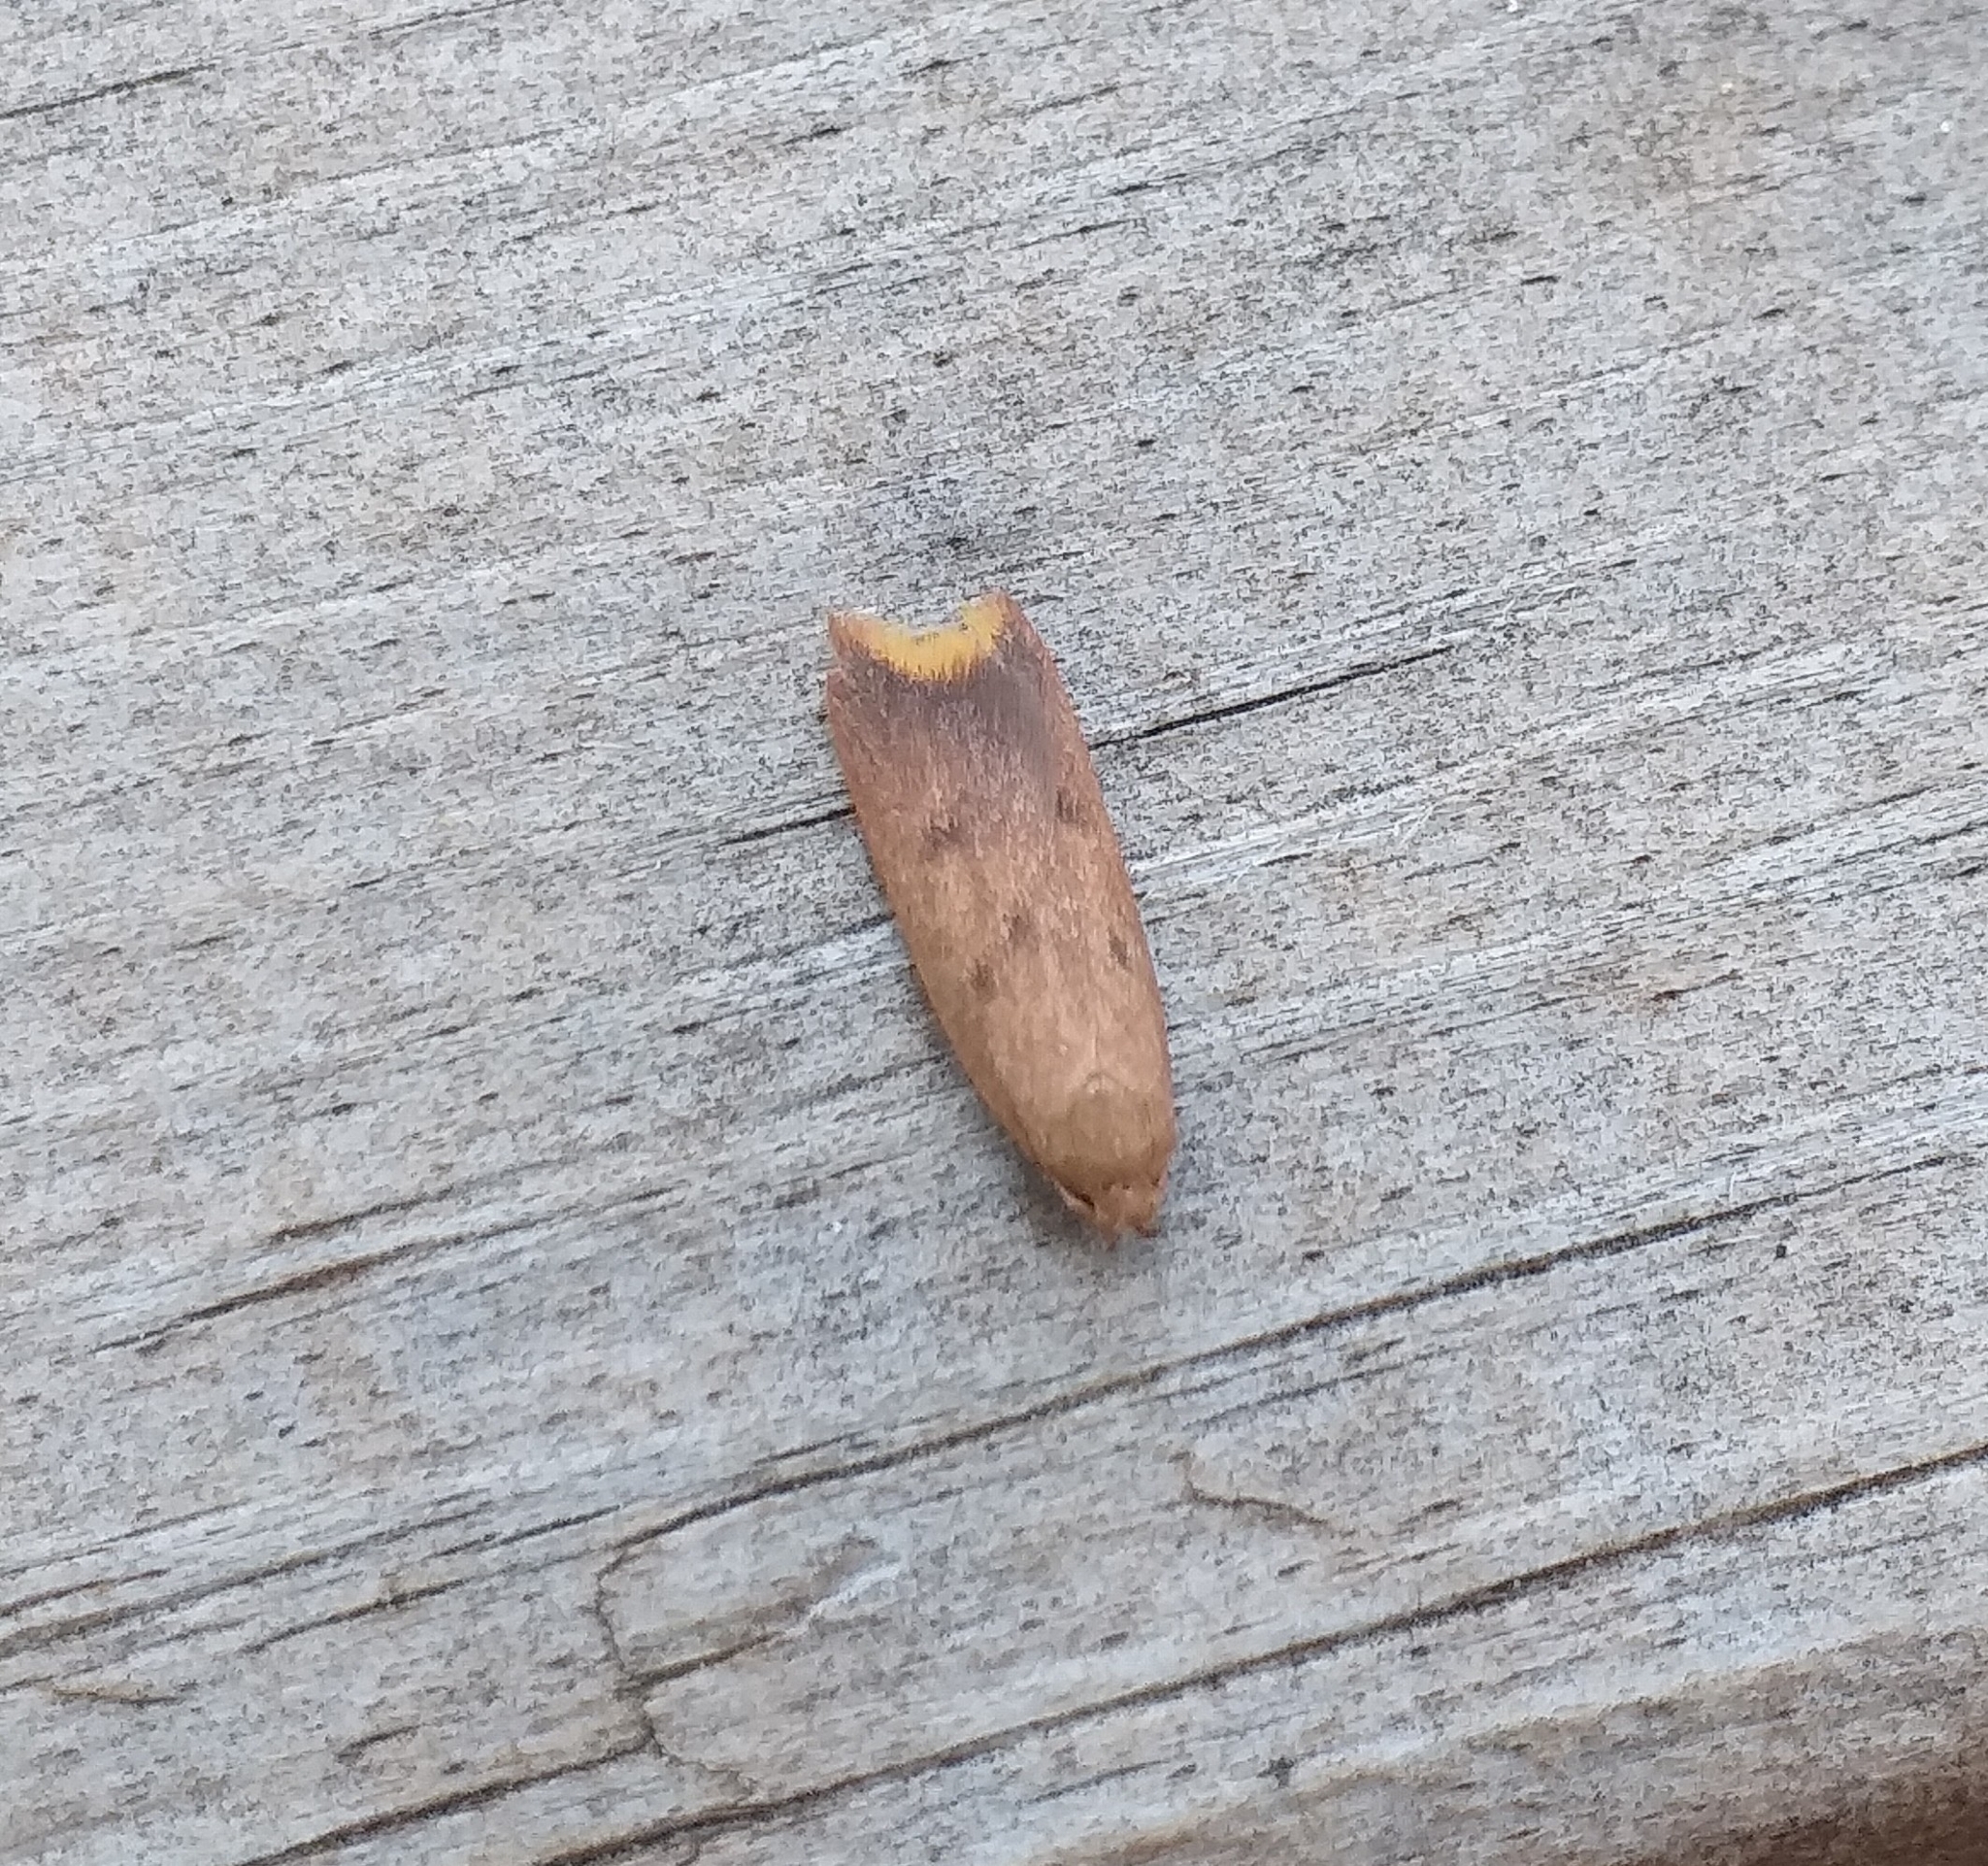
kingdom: Animalia
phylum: Arthropoda
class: Insecta
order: Lepidoptera
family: Oecophoridae
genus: Tachystola
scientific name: Tachystola acroxantha
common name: Ruddy streak
